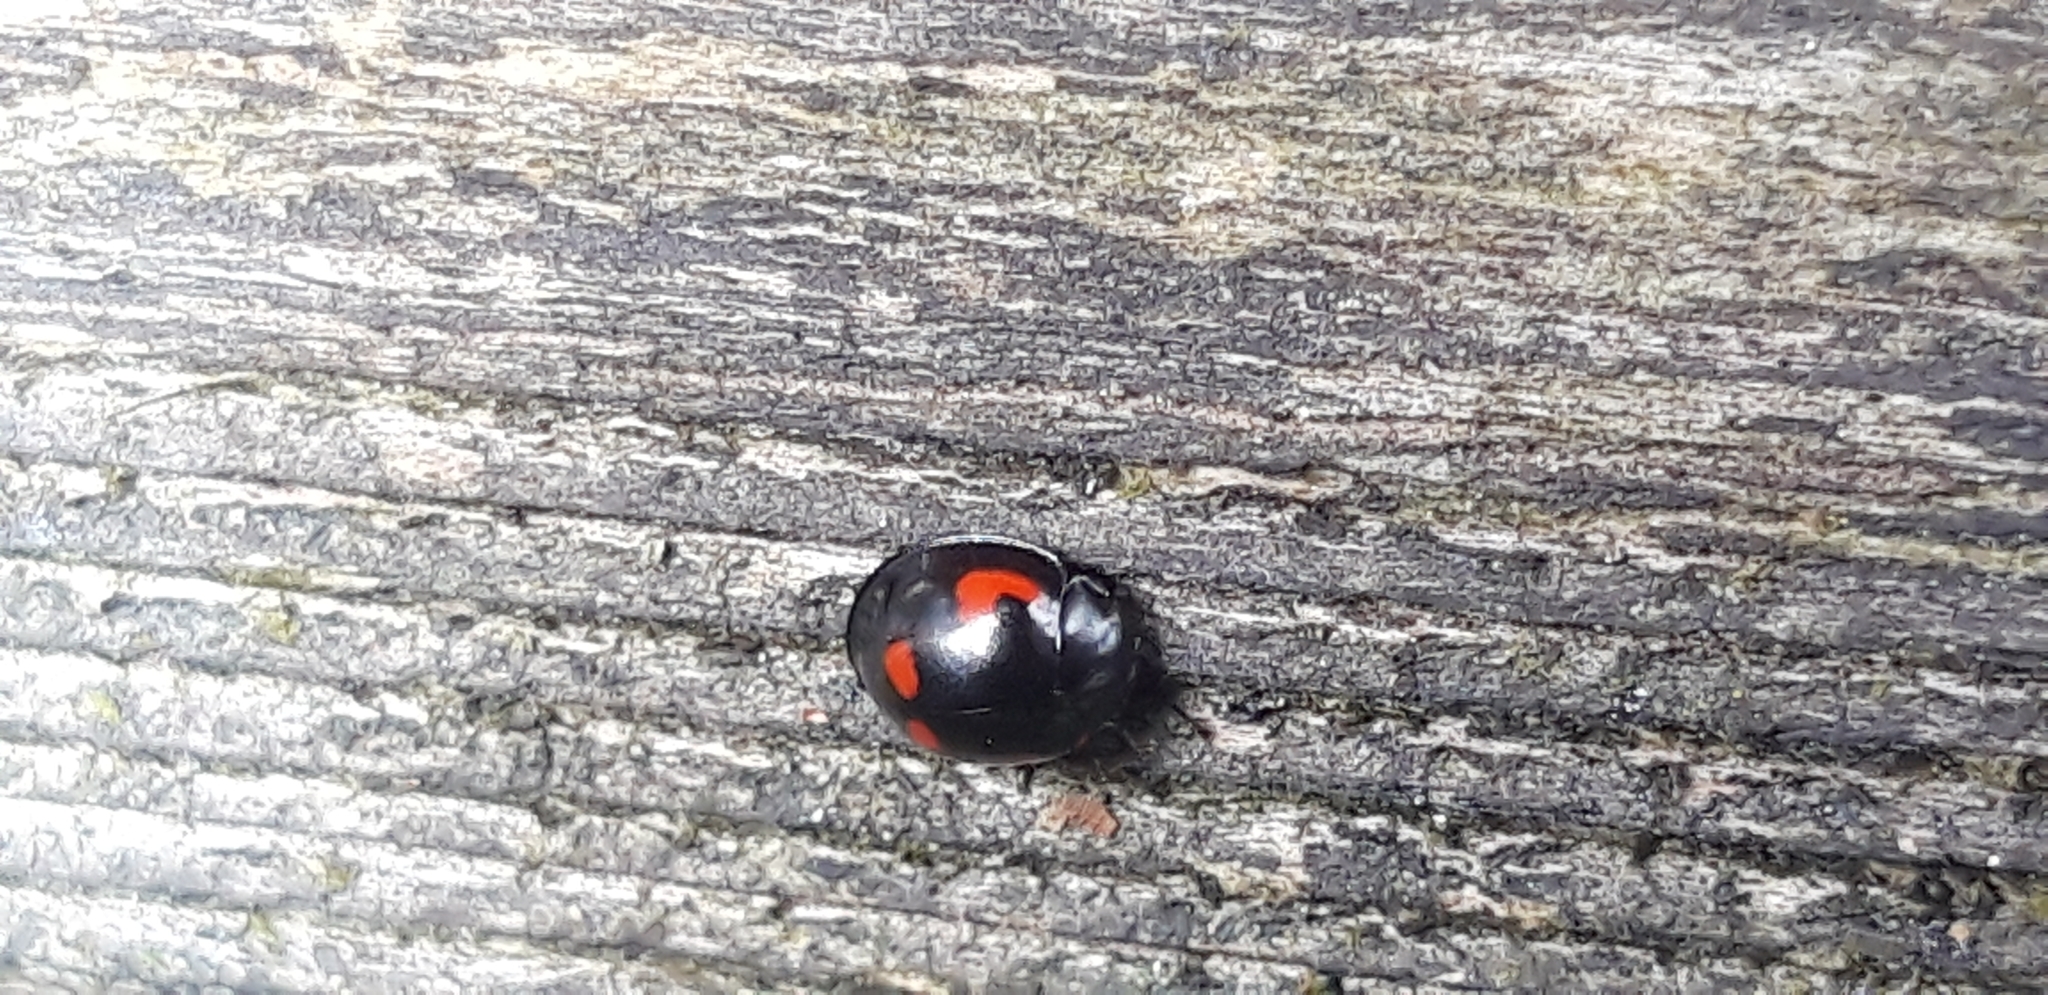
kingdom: Animalia
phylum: Arthropoda
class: Insecta
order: Coleoptera
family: Coccinellidae
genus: Brumus
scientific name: Brumus quadripustulatus
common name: Ladybird beetle
